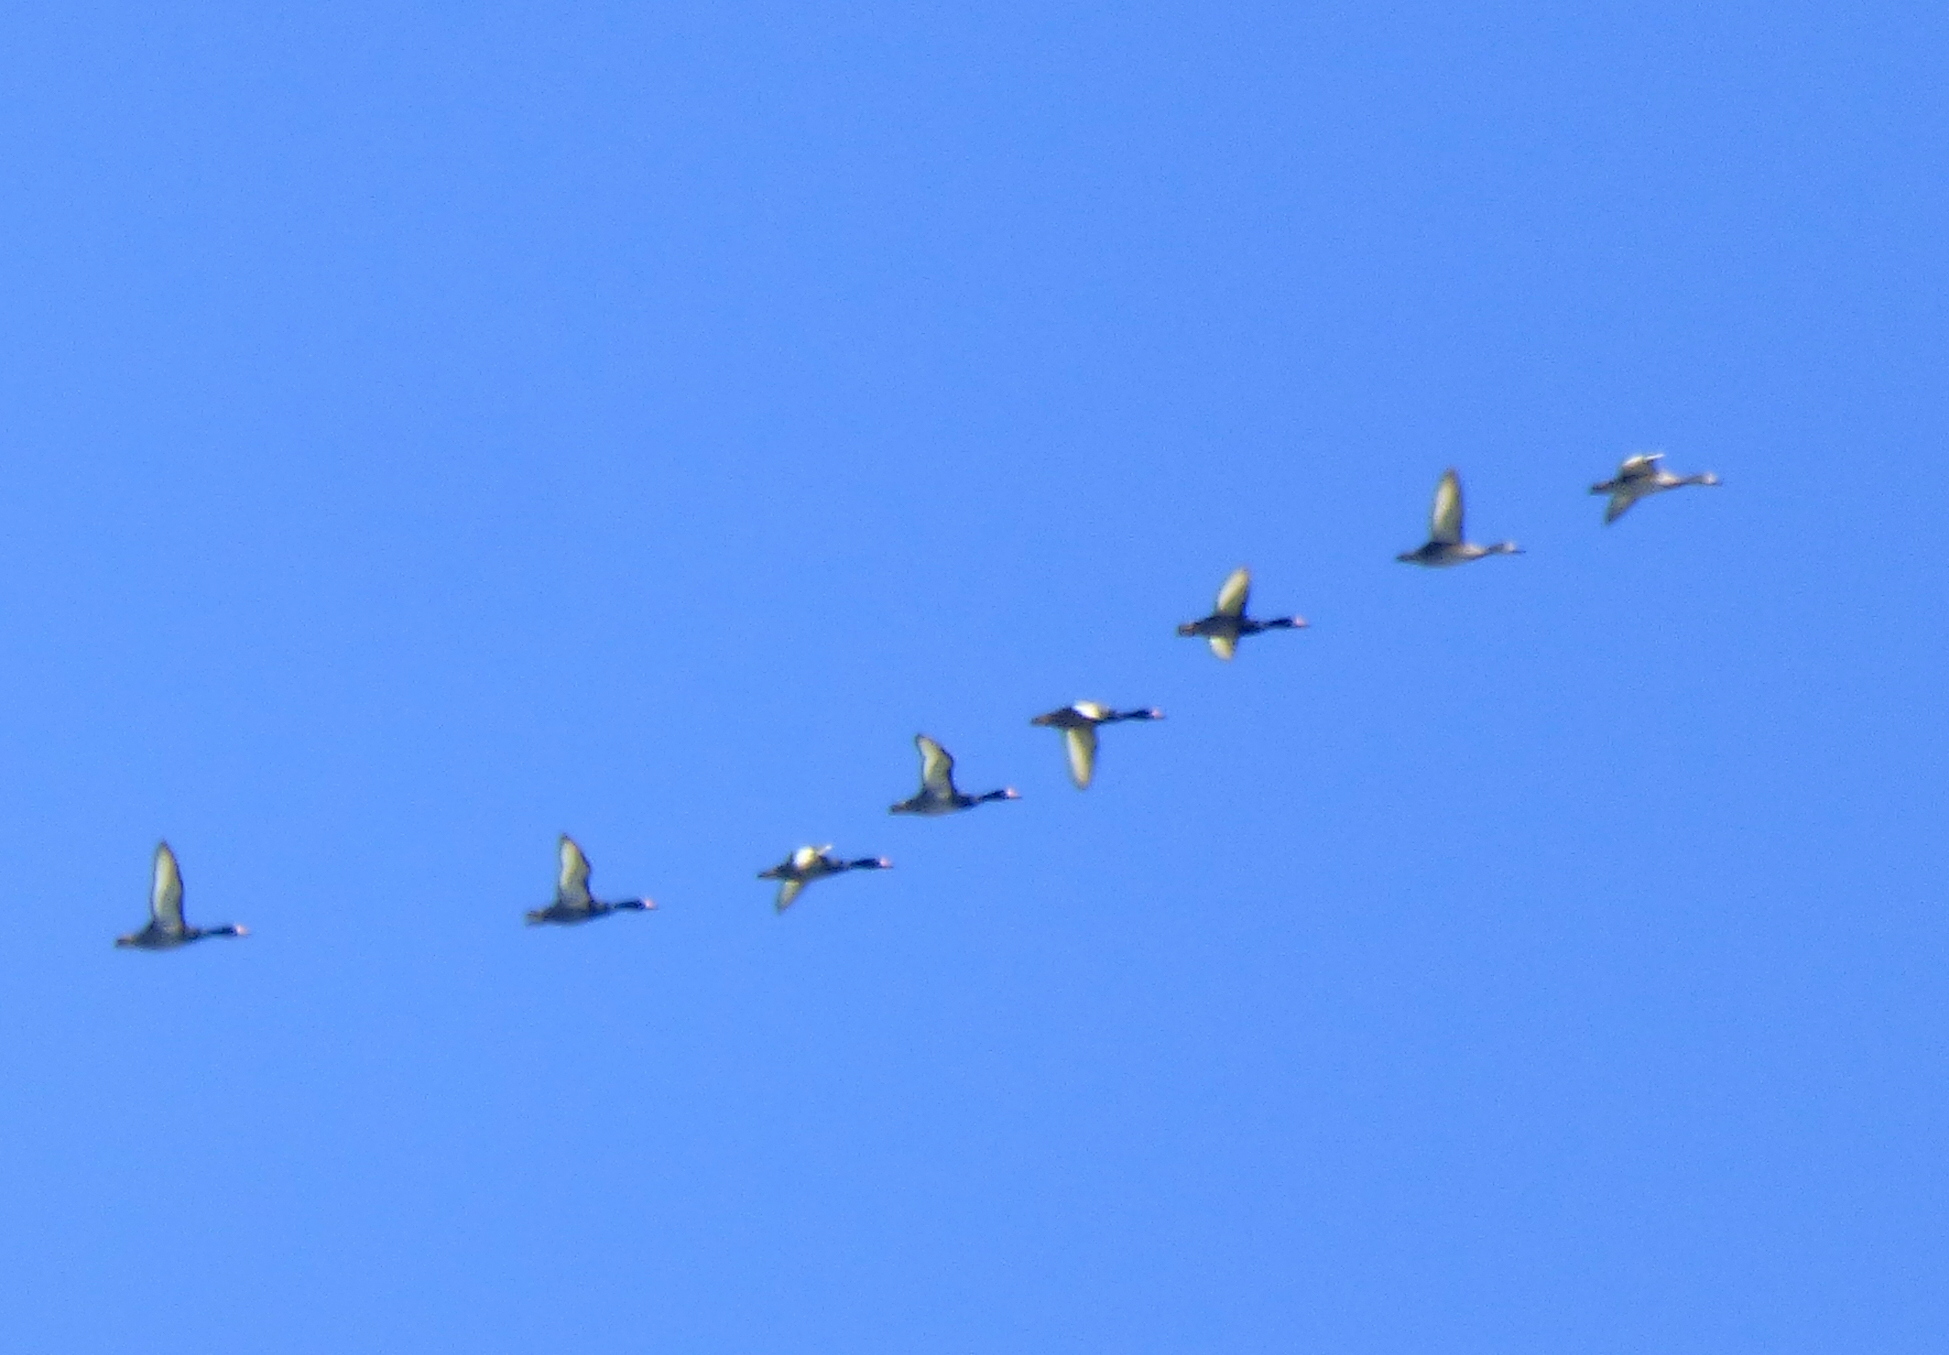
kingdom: Animalia
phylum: Chordata
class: Aves
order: Anseriformes
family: Anatidae
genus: Netta
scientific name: Netta peposaca
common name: Rosy-billed pochard
